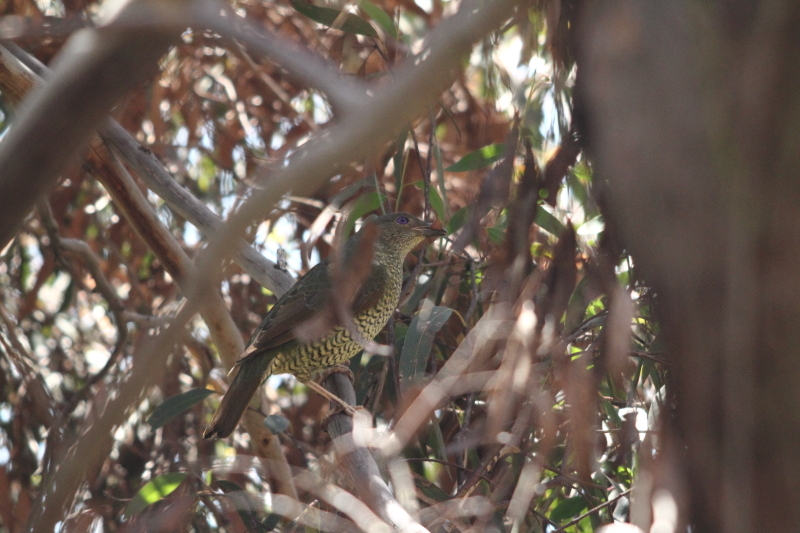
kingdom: Animalia
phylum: Chordata
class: Aves
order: Passeriformes
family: Ptilonorhynchidae
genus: Ptilonorhynchus
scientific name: Ptilonorhynchus violaceus
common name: Satin bowerbird
